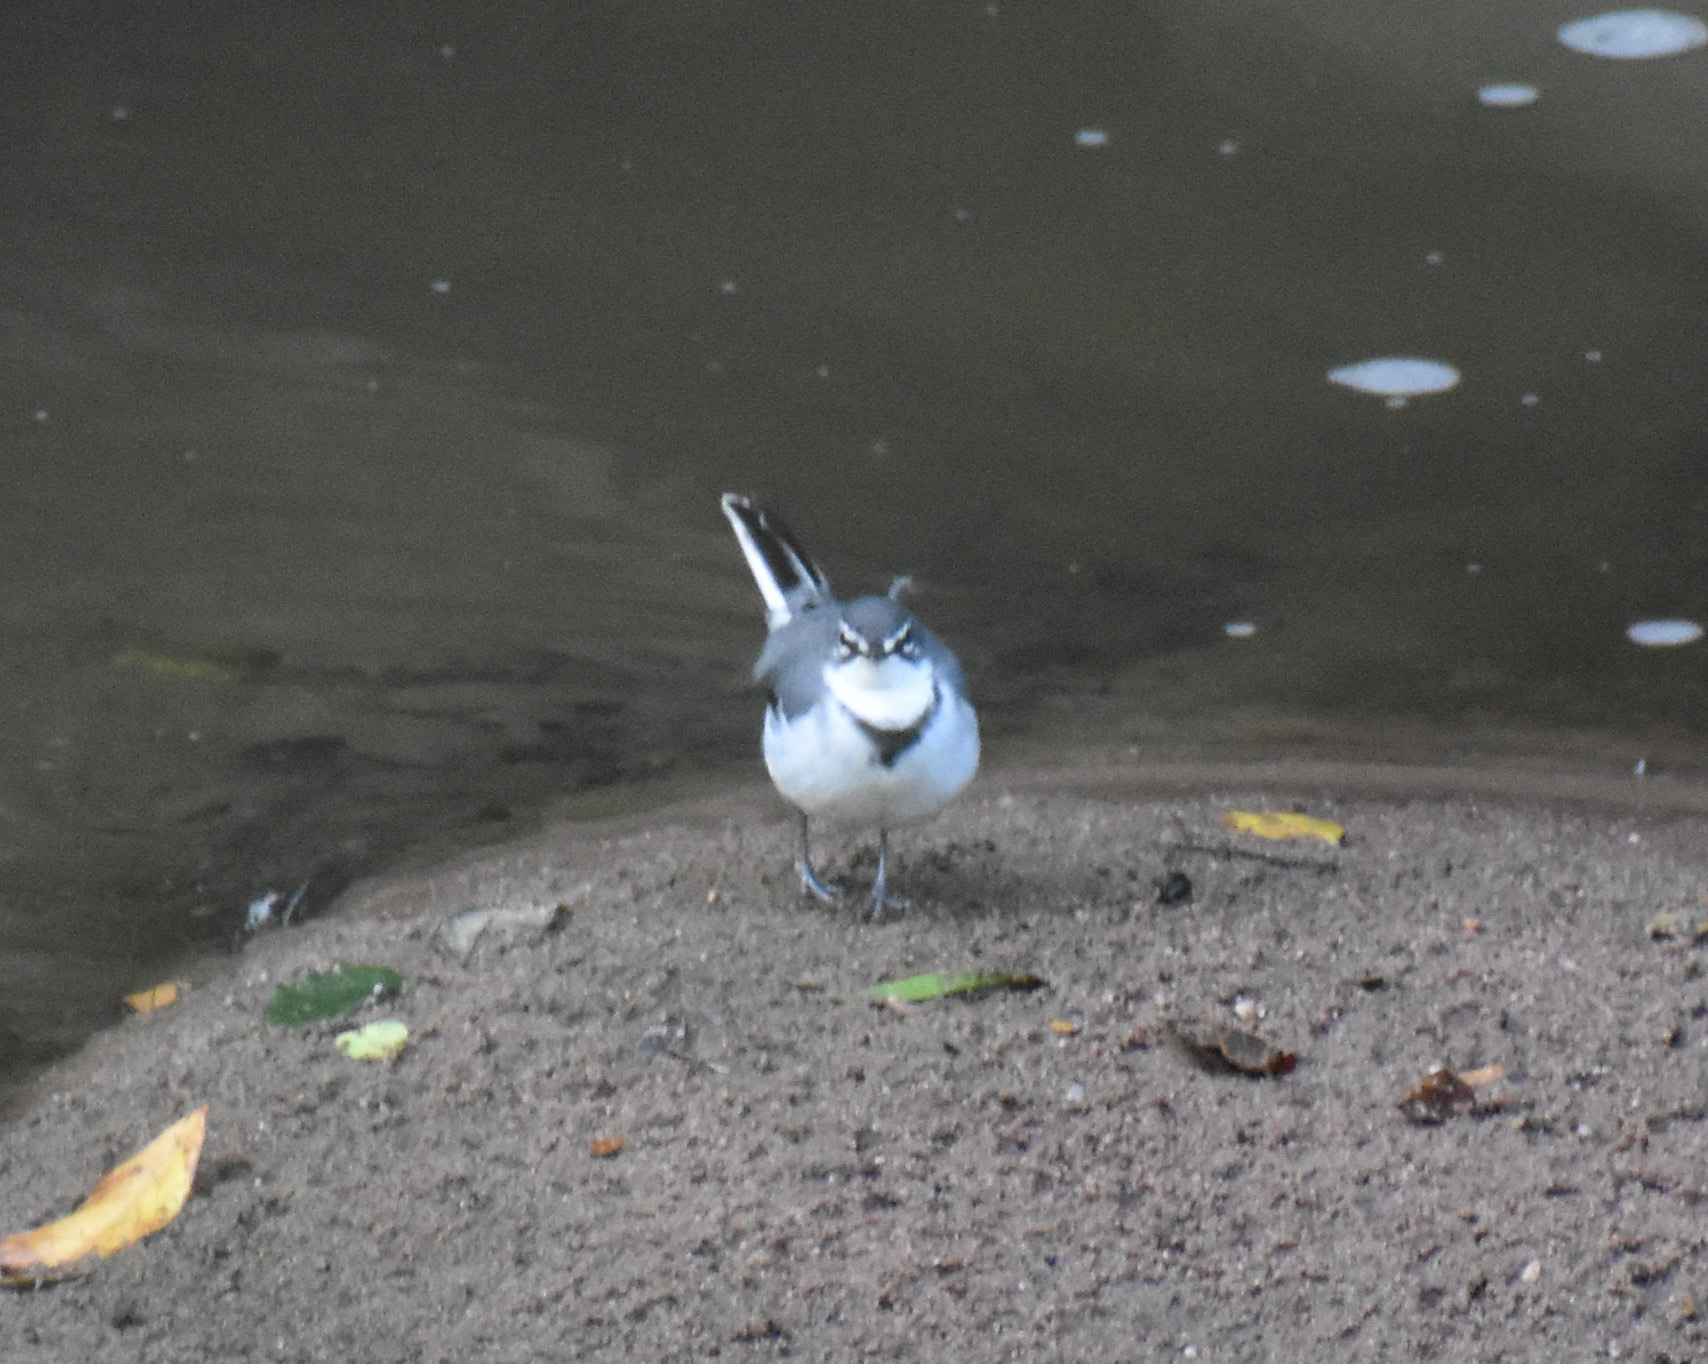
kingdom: Animalia
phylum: Chordata
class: Aves
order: Passeriformes
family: Motacillidae
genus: Motacilla
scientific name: Motacilla clara
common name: Mountain wagtail
